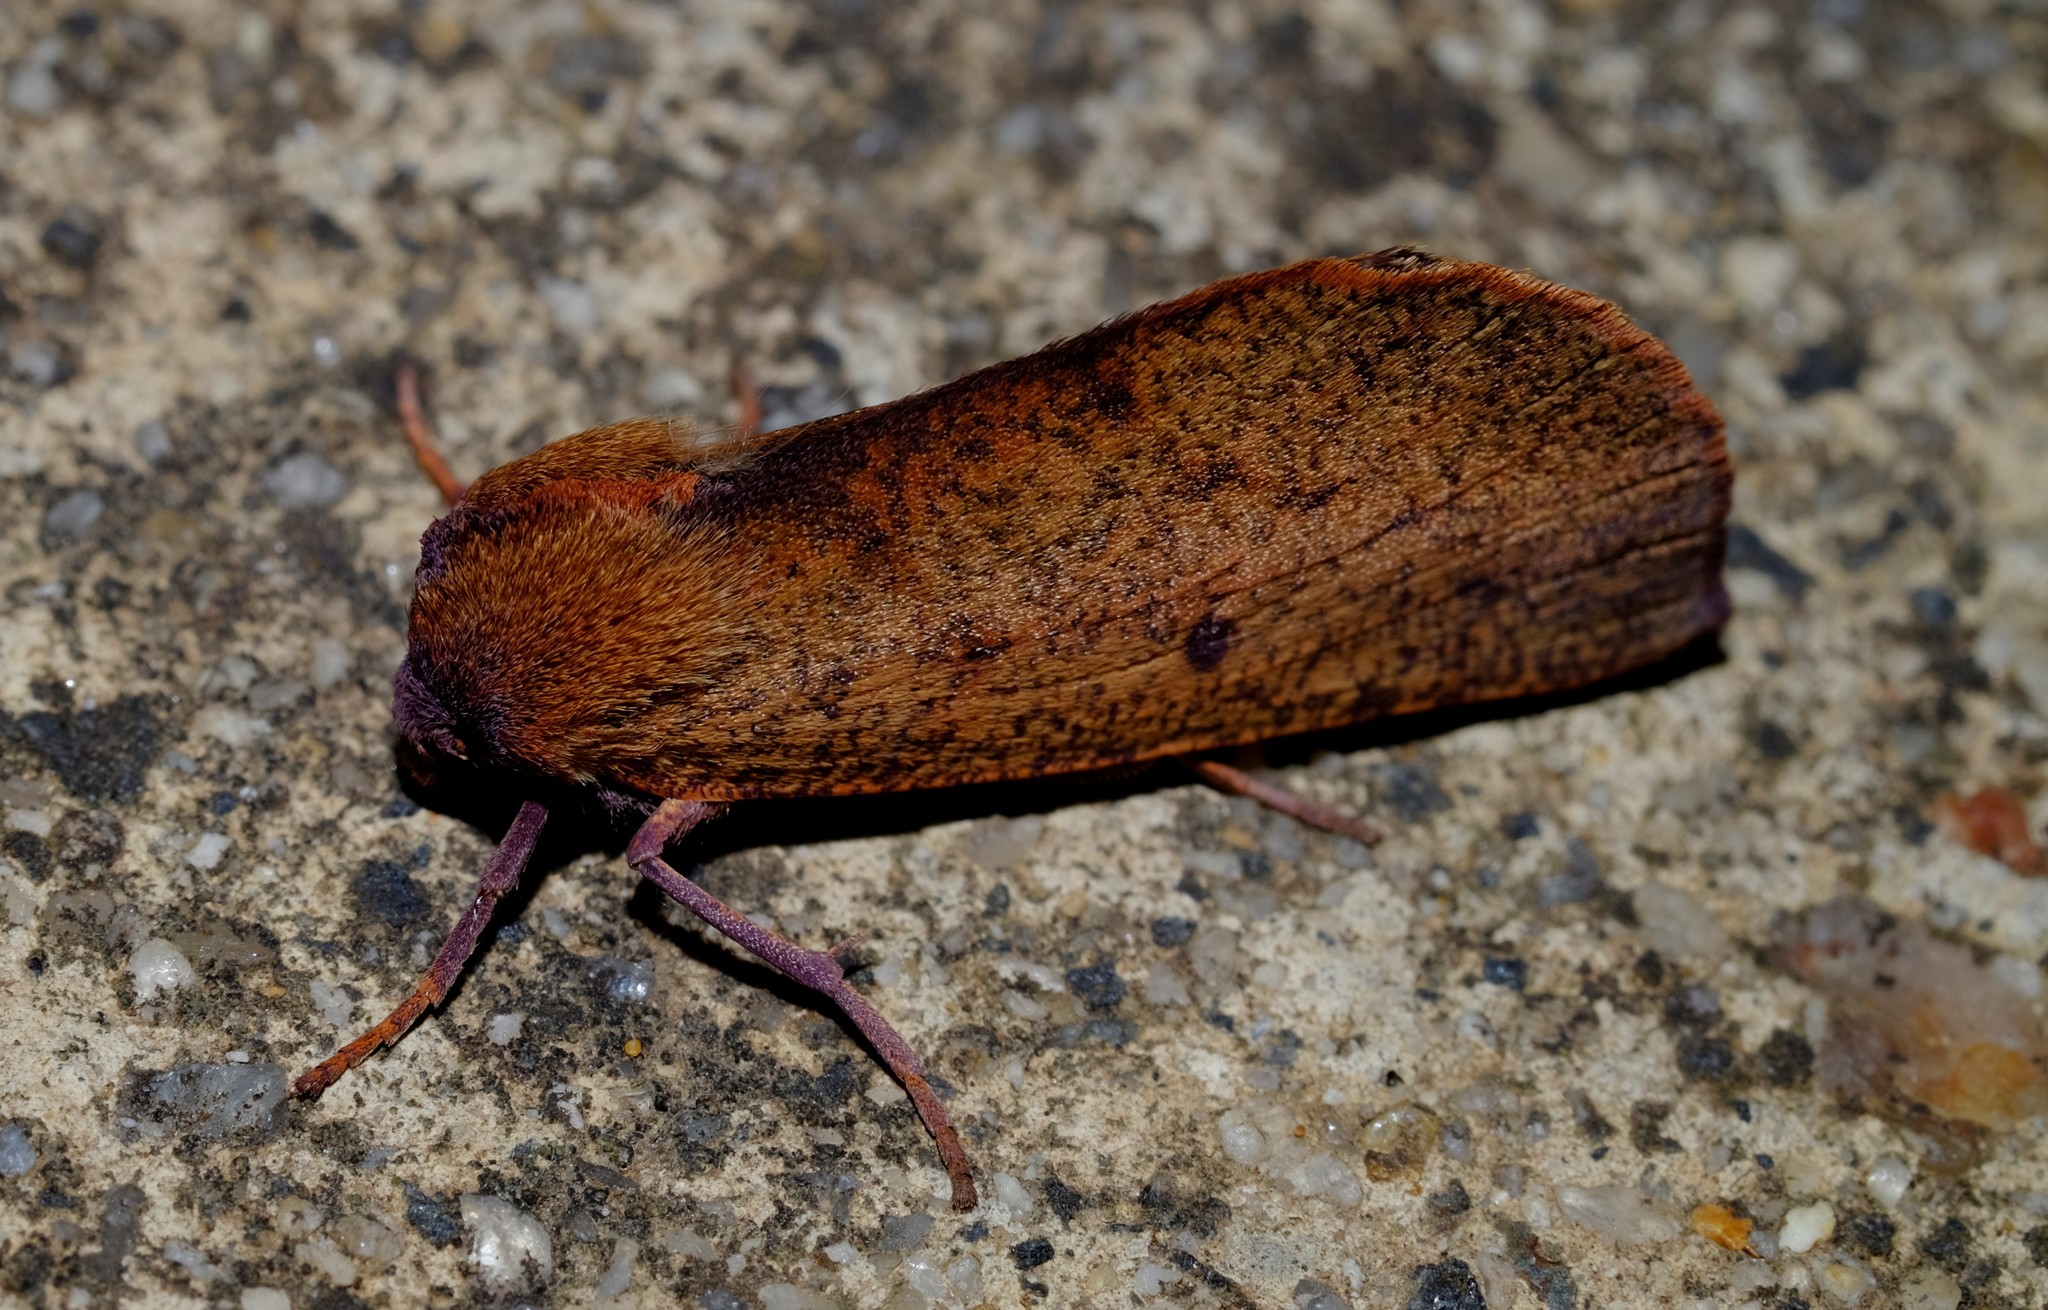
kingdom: Animalia
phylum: Arthropoda
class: Insecta
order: Lepidoptera
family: Geometridae
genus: Fisera
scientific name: Fisera hypoleuca
